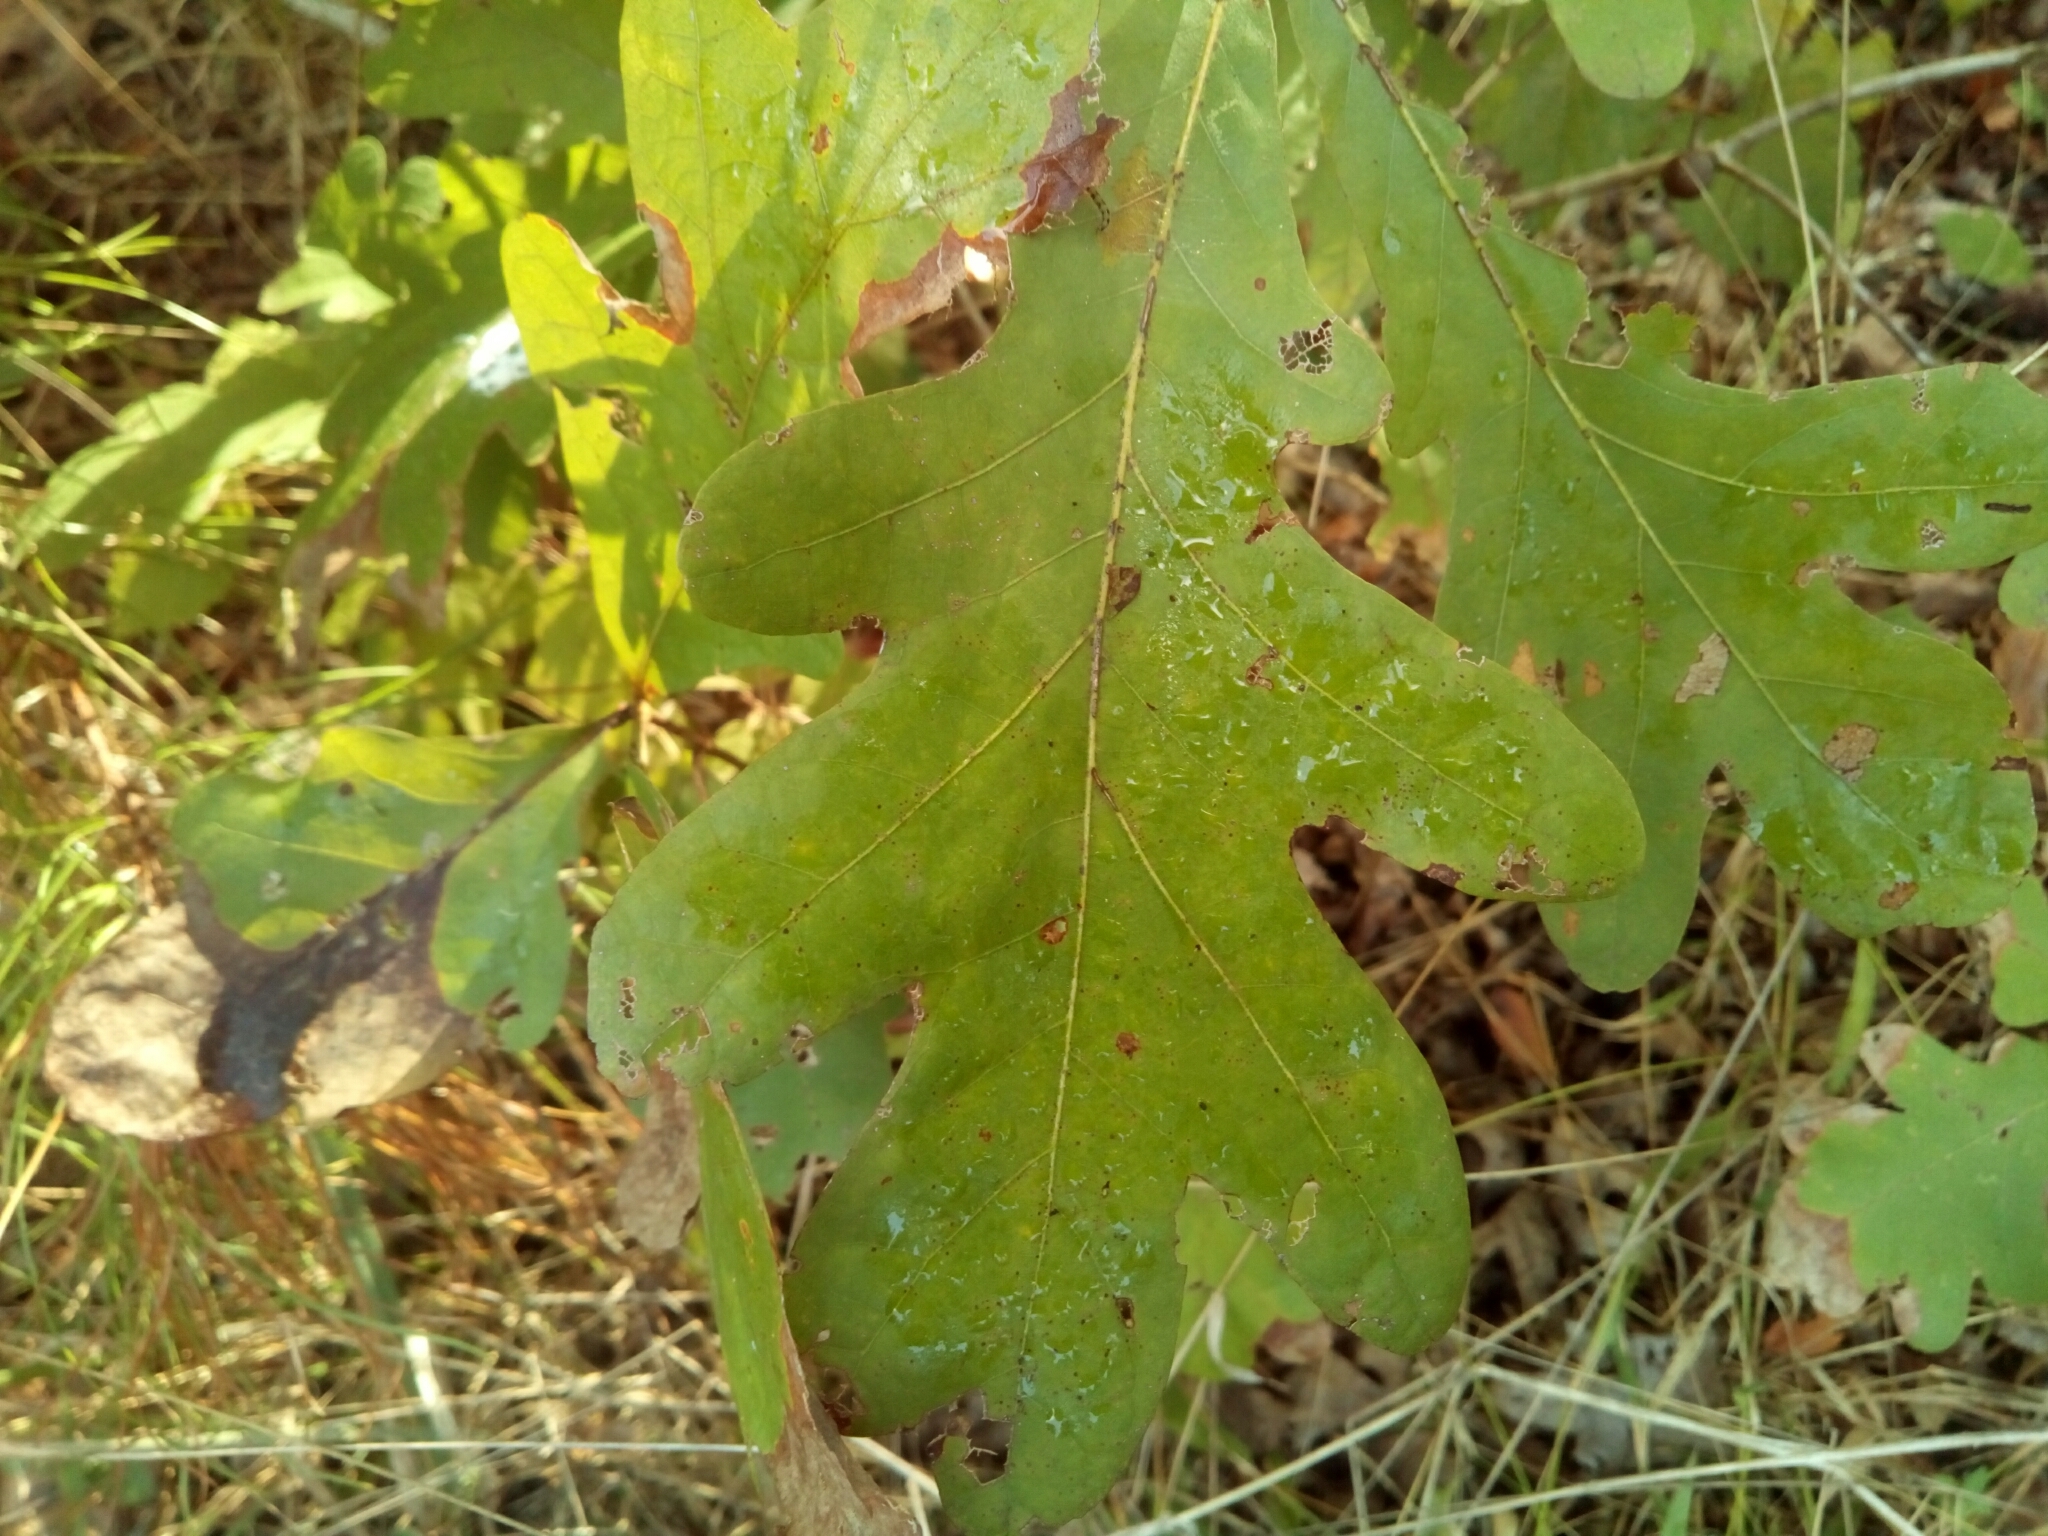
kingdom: Plantae
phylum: Tracheophyta
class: Magnoliopsida
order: Fagales
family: Fagaceae
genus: Quercus
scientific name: Quercus alba
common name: White oak
